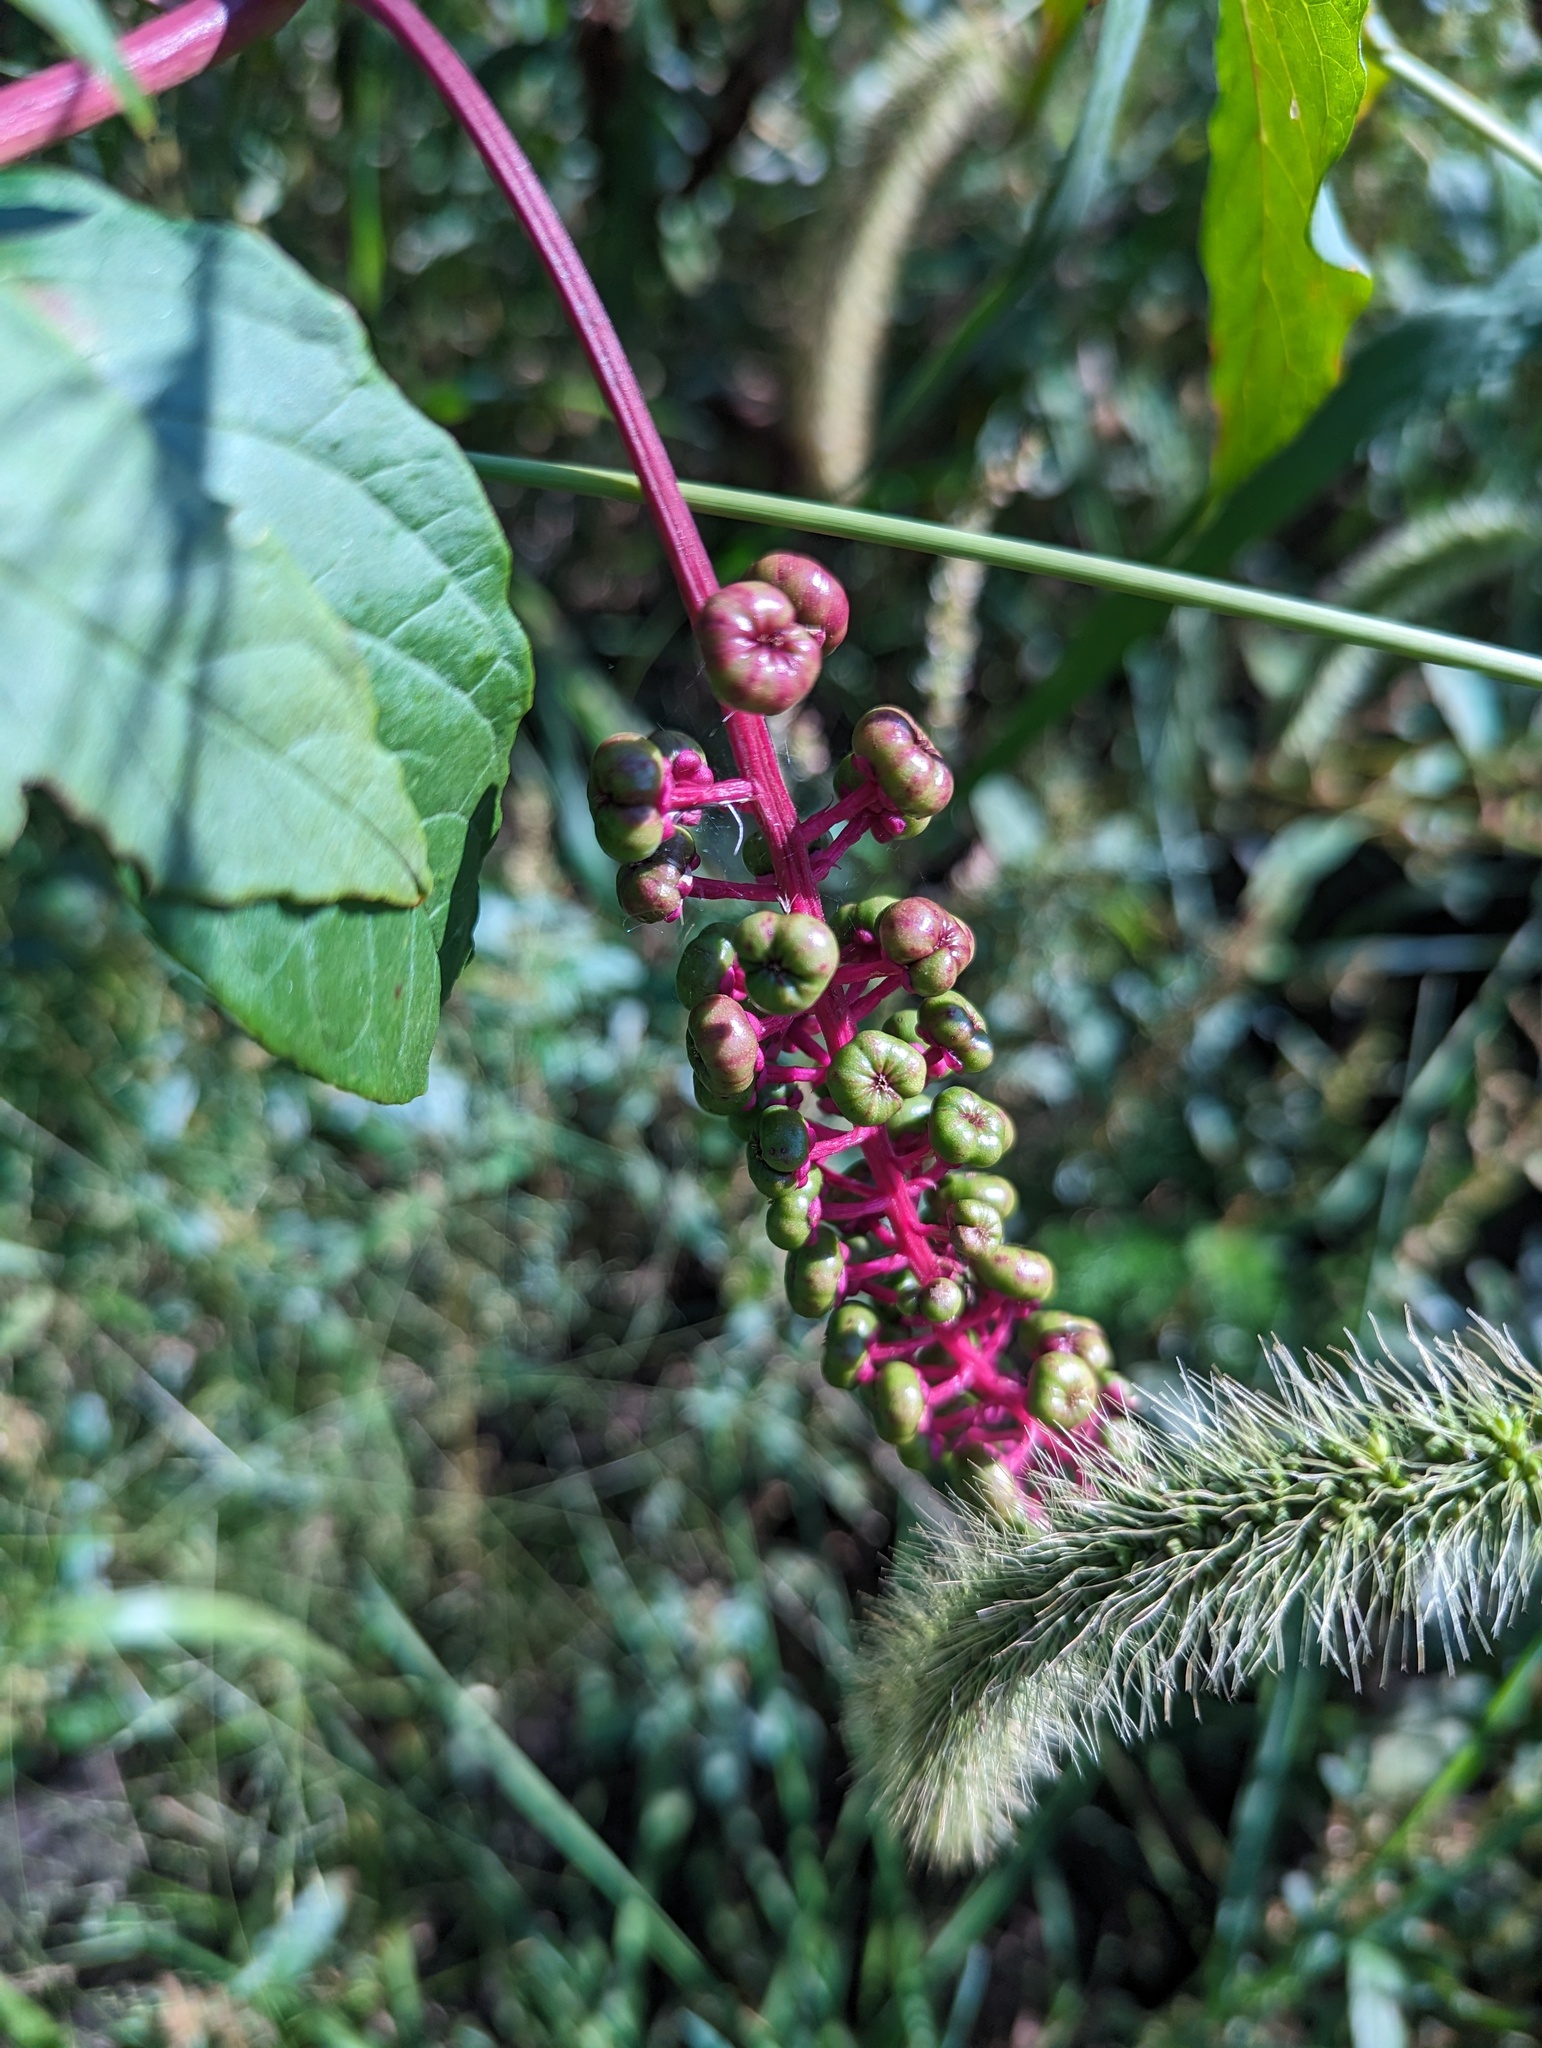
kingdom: Plantae
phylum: Tracheophyta
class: Magnoliopsida
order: Caryophyllales
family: Phytolaccaceae
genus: Phytolacca
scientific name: Phytolacca americana
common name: American pokeweed
